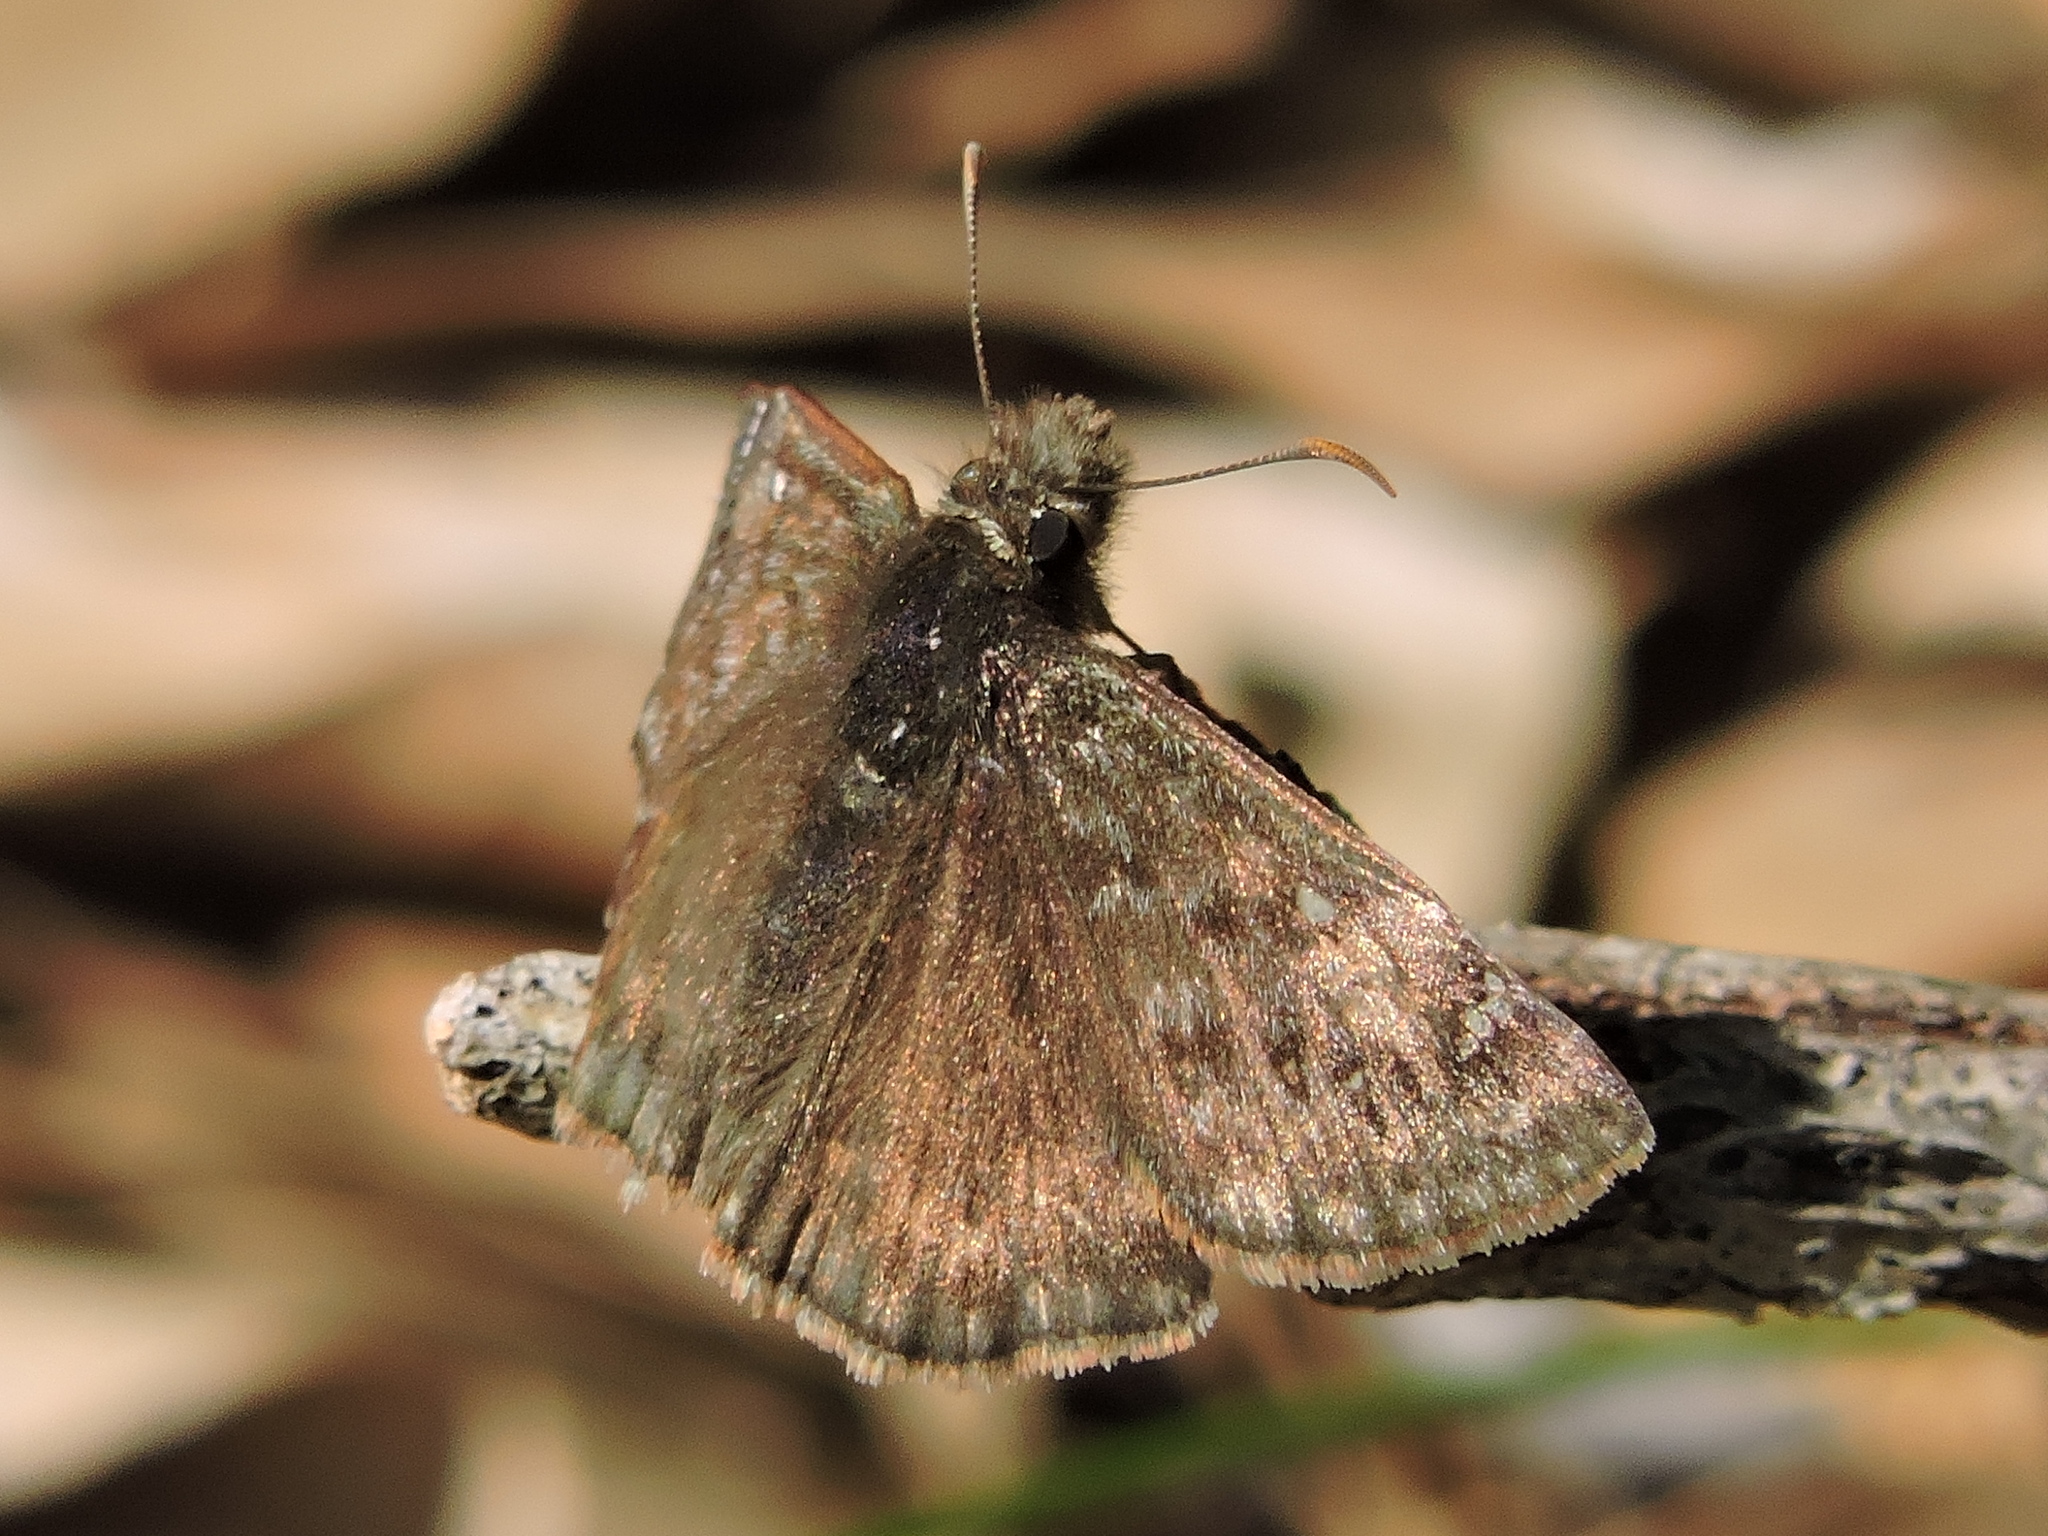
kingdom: Animalia
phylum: Arthropoda
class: Insecta
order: Lepidoptera
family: Hesperiidae
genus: Erynnis
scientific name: Erynnis horatius
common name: Horace's duskywing
